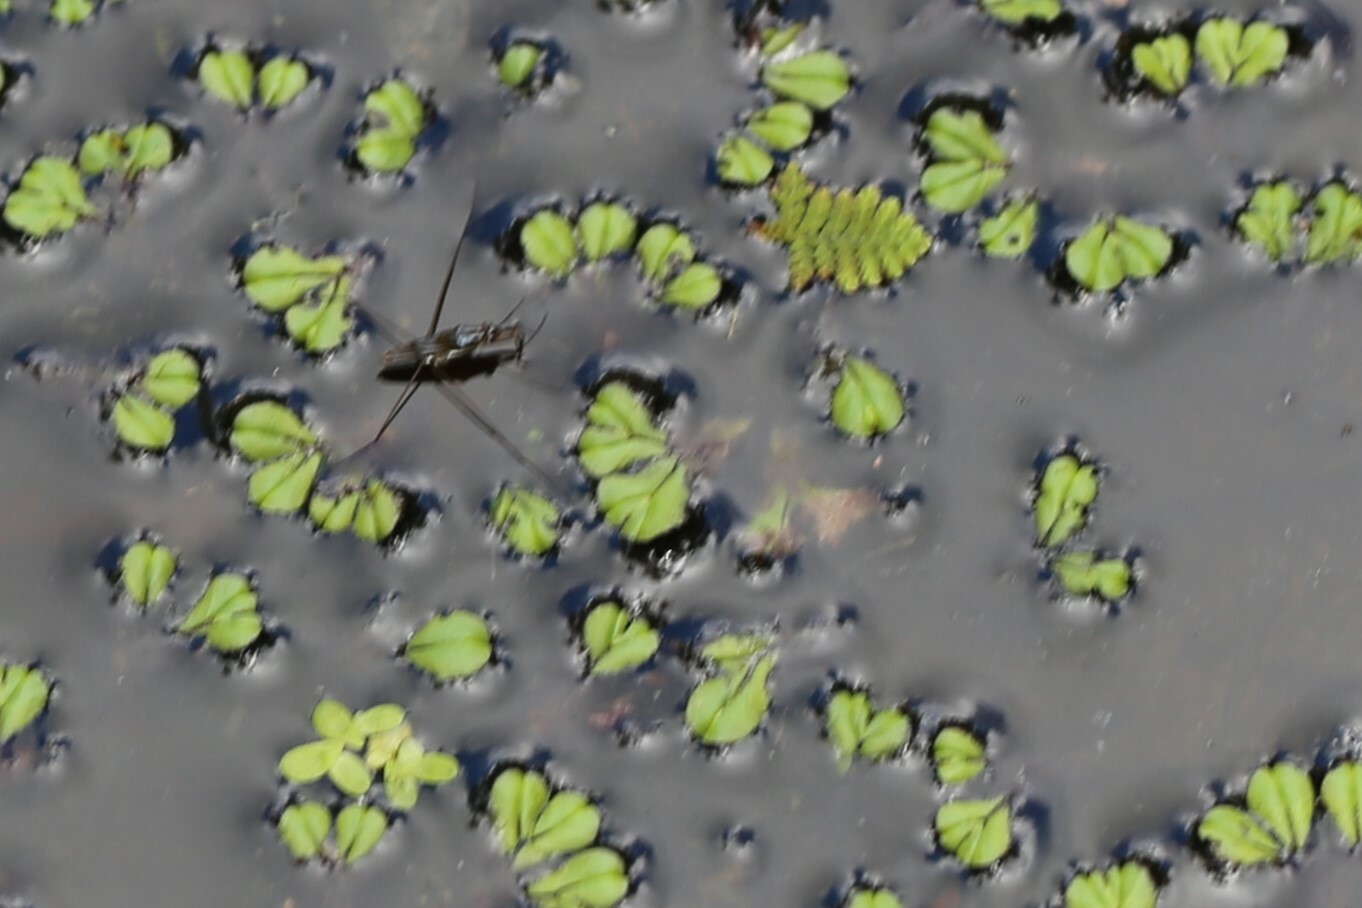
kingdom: Animalia
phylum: Arthropoda
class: Insecta
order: Hemiptera
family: Gerridae
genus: Limnogonus
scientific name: Limnogonus
